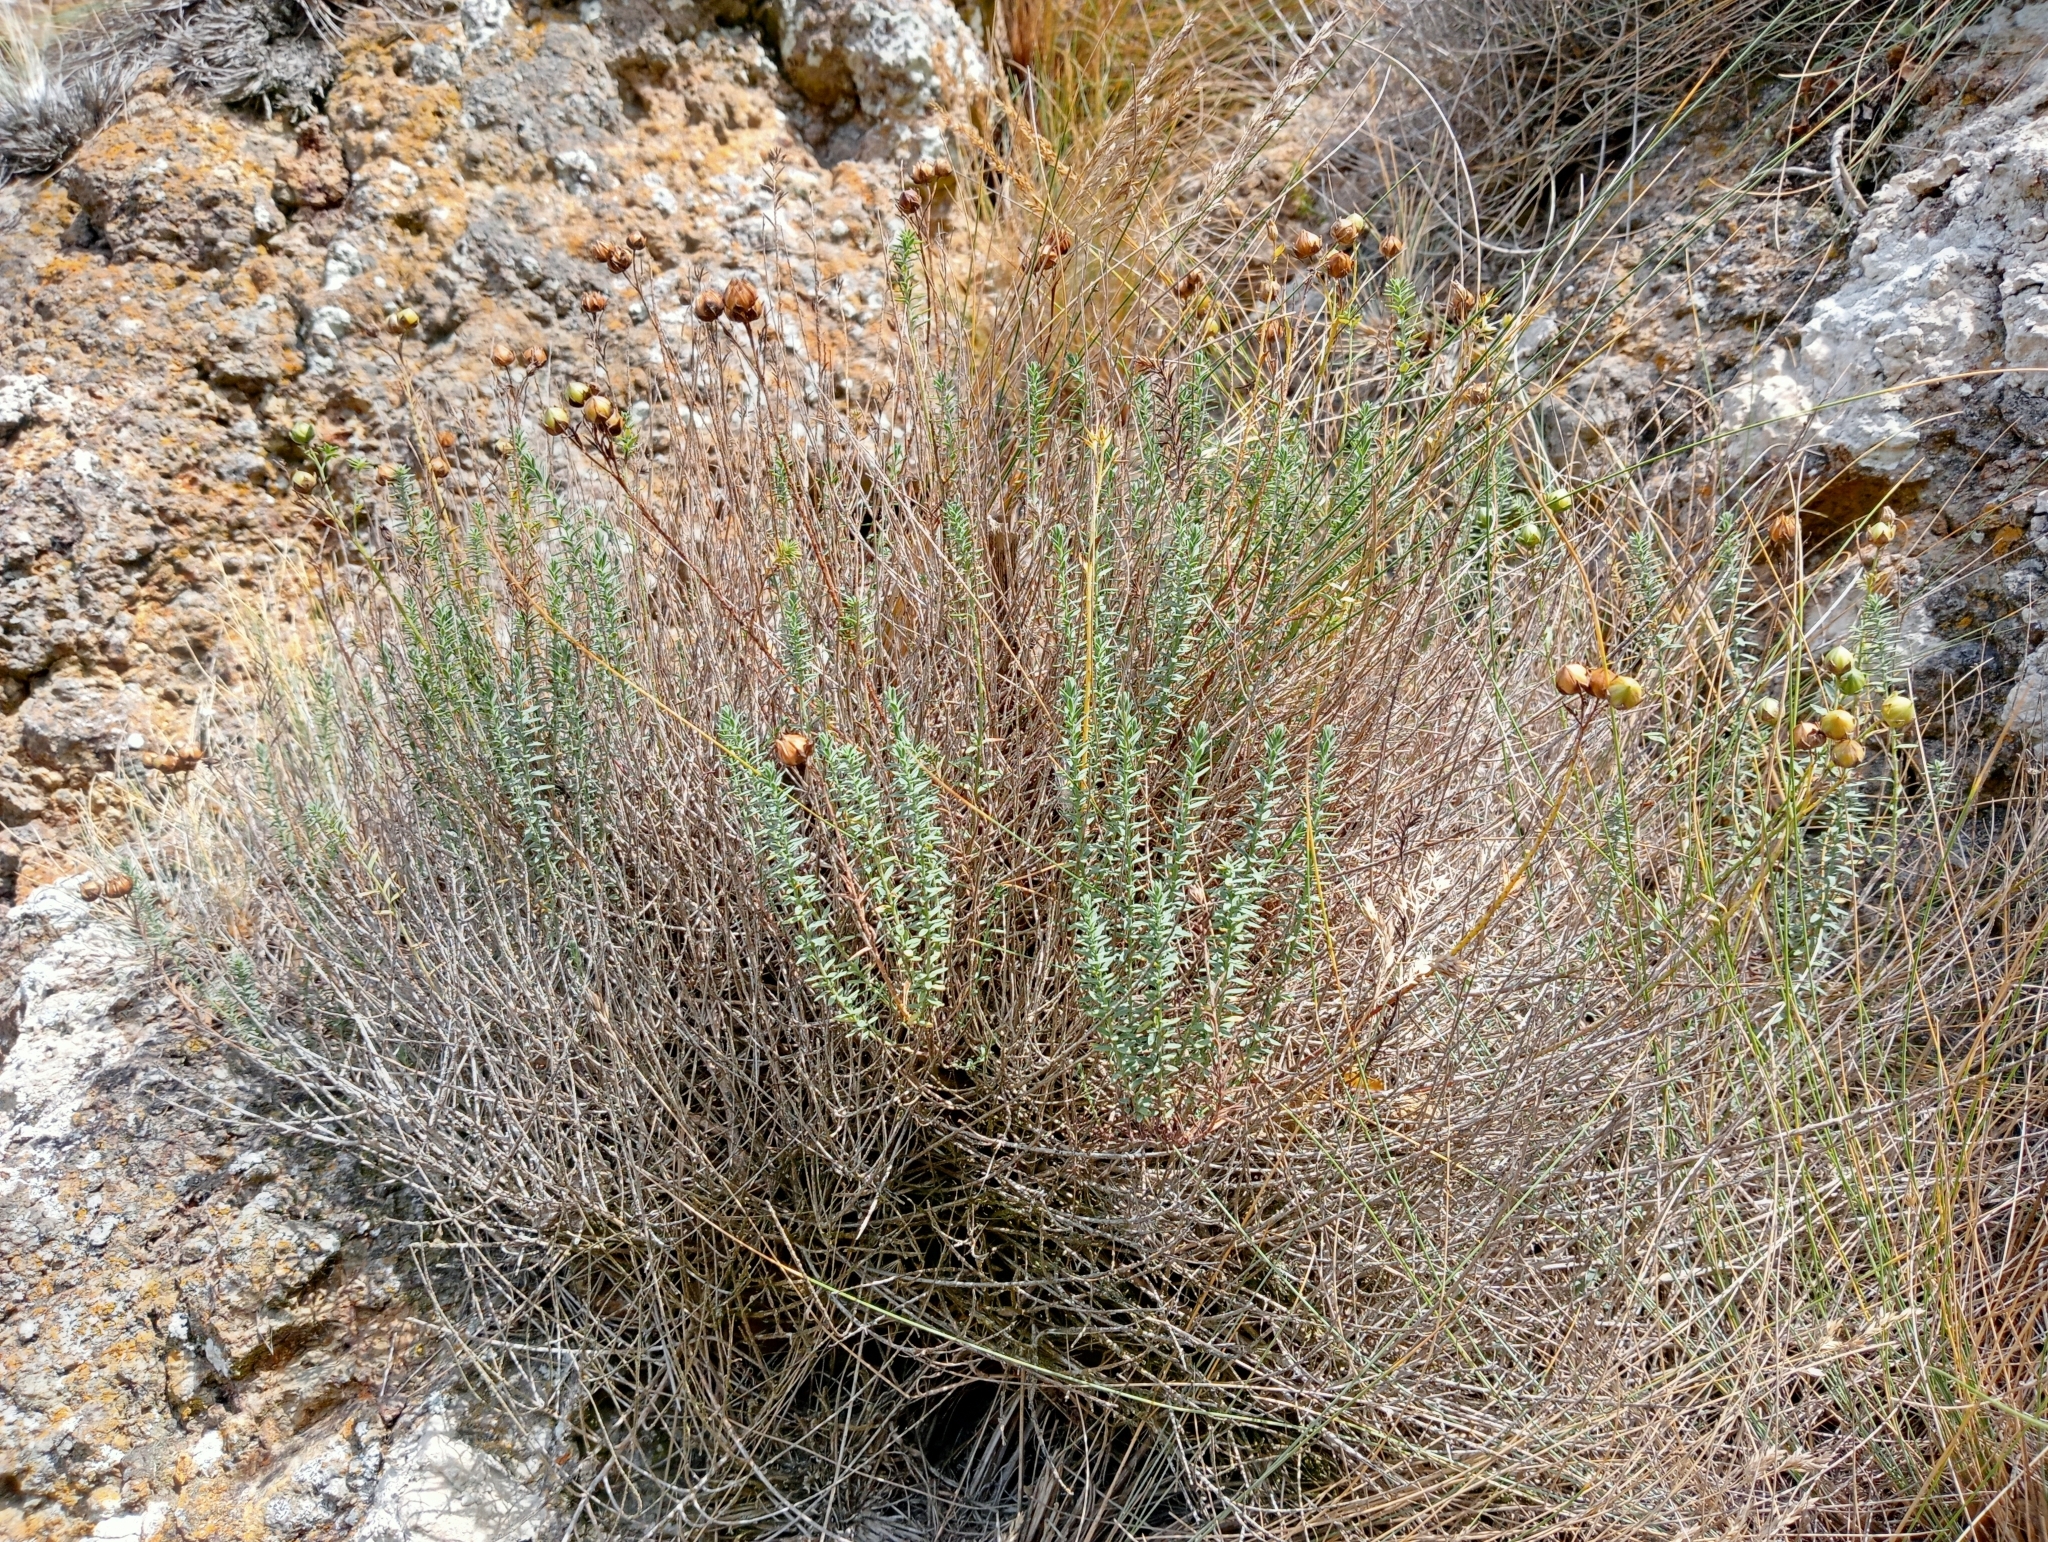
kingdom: Plantae
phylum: Tracheophyta
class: Magnoliopsida
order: Malpighiales
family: Linaceae
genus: Linum
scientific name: Linum monogynum
